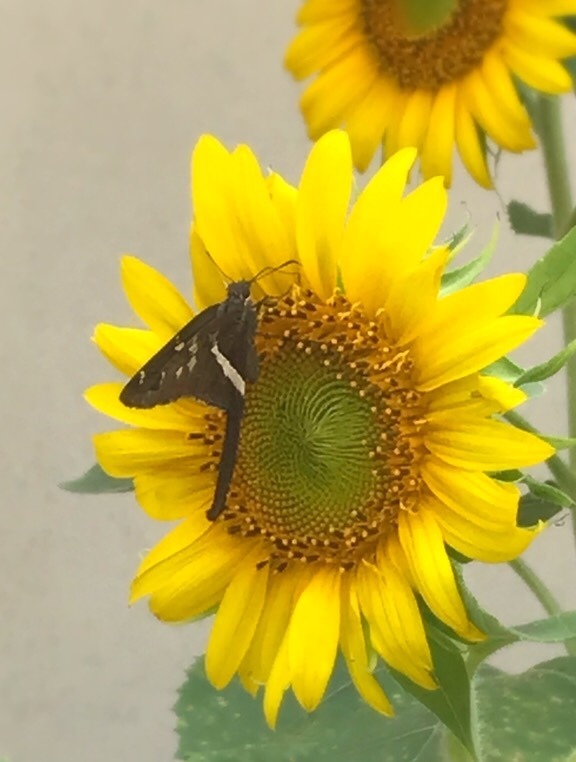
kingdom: Animalia
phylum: Arthropoda
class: Insecta
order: Lepidoptera
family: Hesperiidae
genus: Chioides
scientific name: Chioides catillus
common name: Silverbanded skipper
